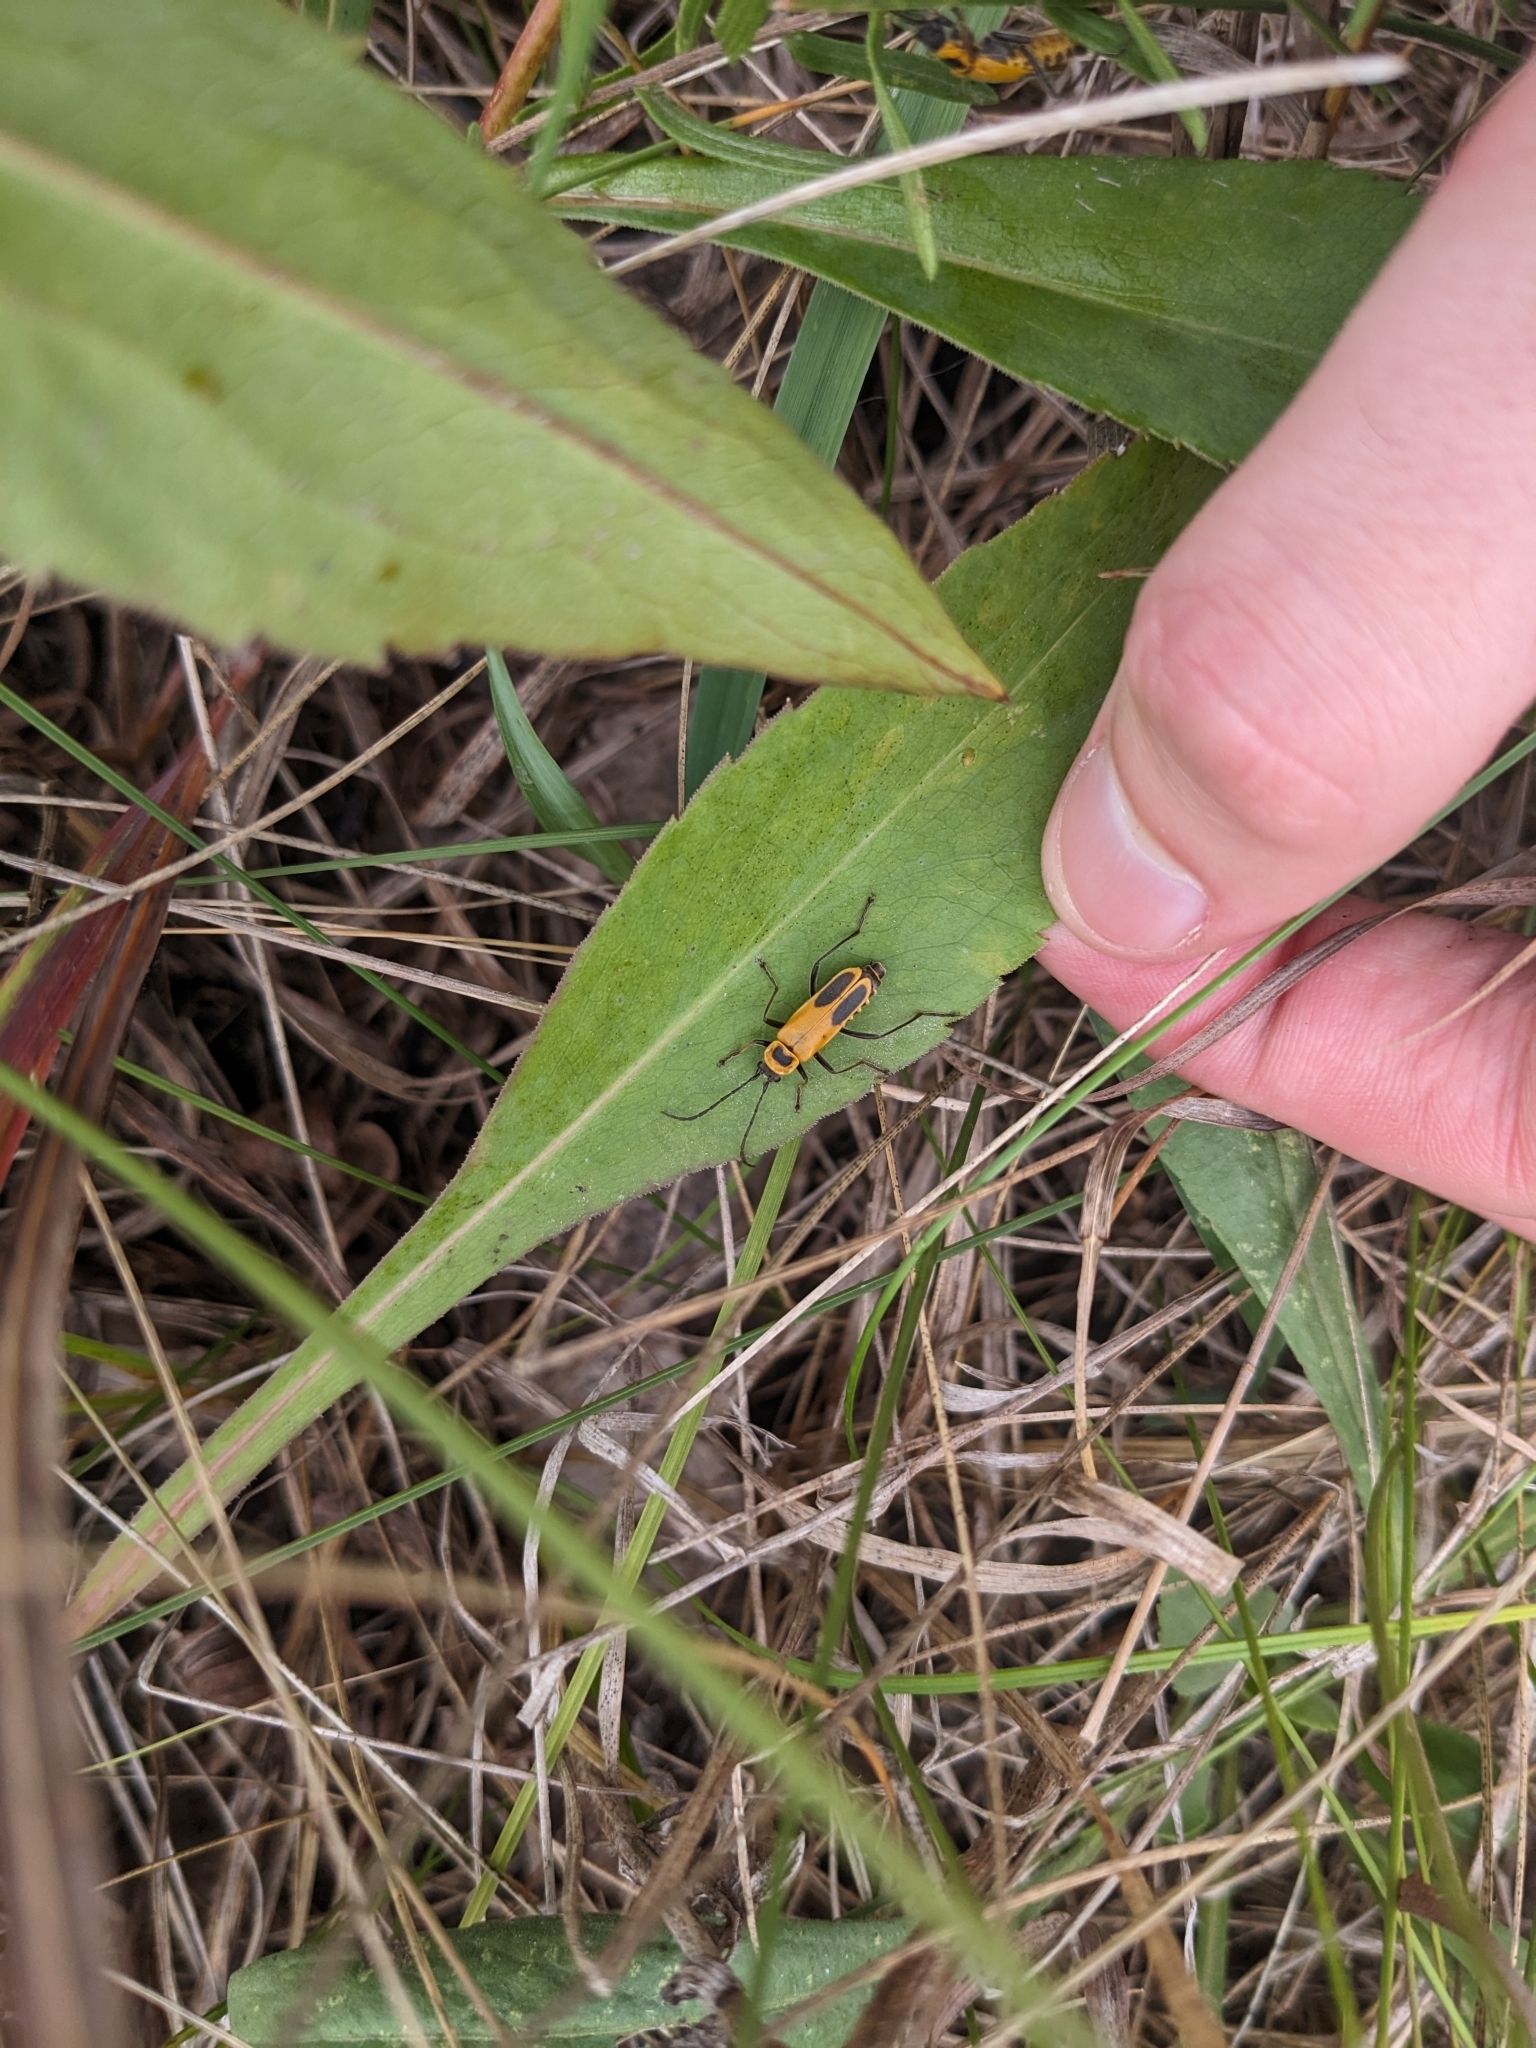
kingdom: Animalia
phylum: Arthropoda
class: Insecta
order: Coleoptera
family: Cantharidae
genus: Chauliognathus
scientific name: Chauliognathus pensylvanicus
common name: Goldenrod soldier beetle
